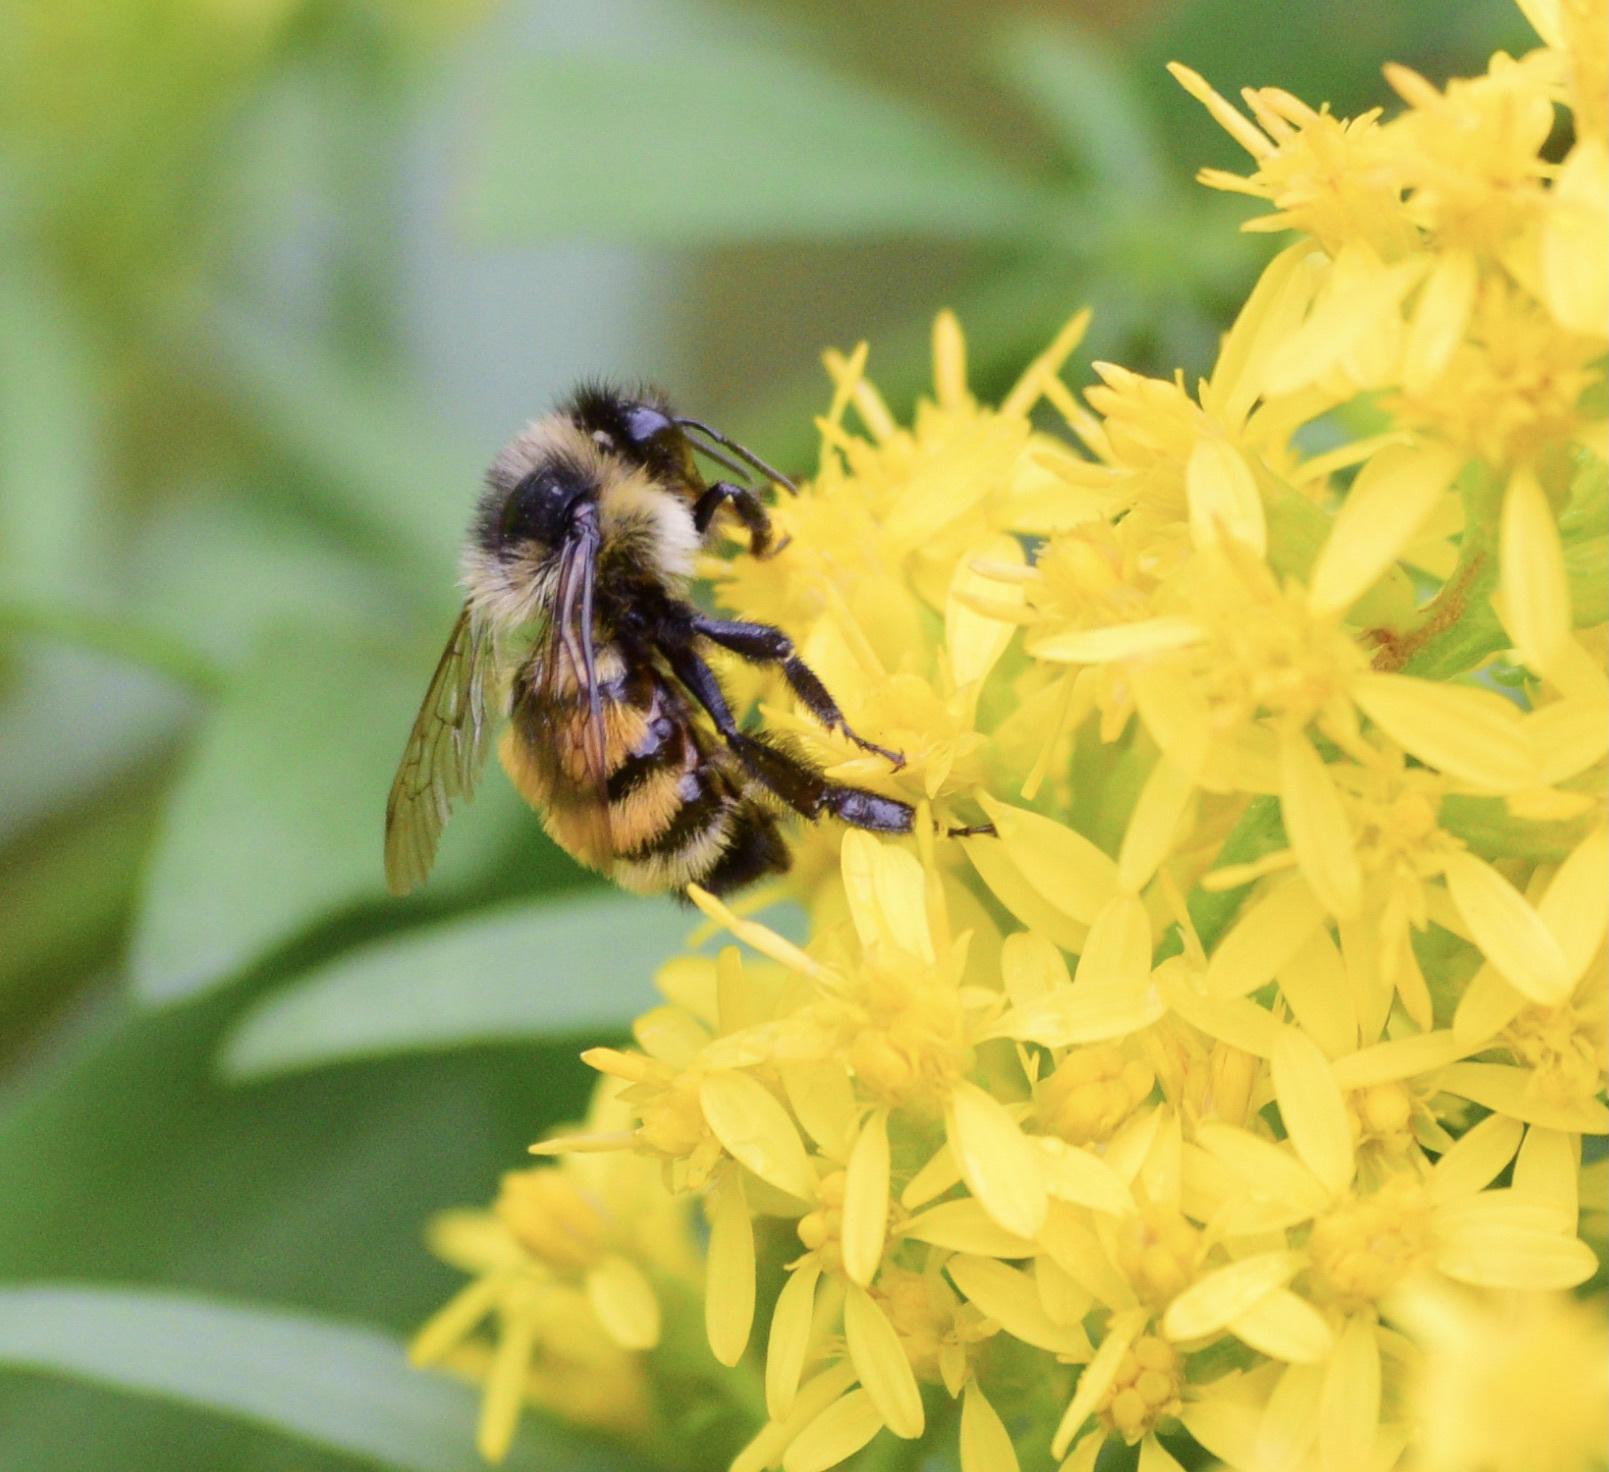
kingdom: Animalia
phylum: Arthropoda
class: Insecta
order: Hymenoptera
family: Apidae
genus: Bombus
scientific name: Bombus ternarius
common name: Tri-colored bumble bee
